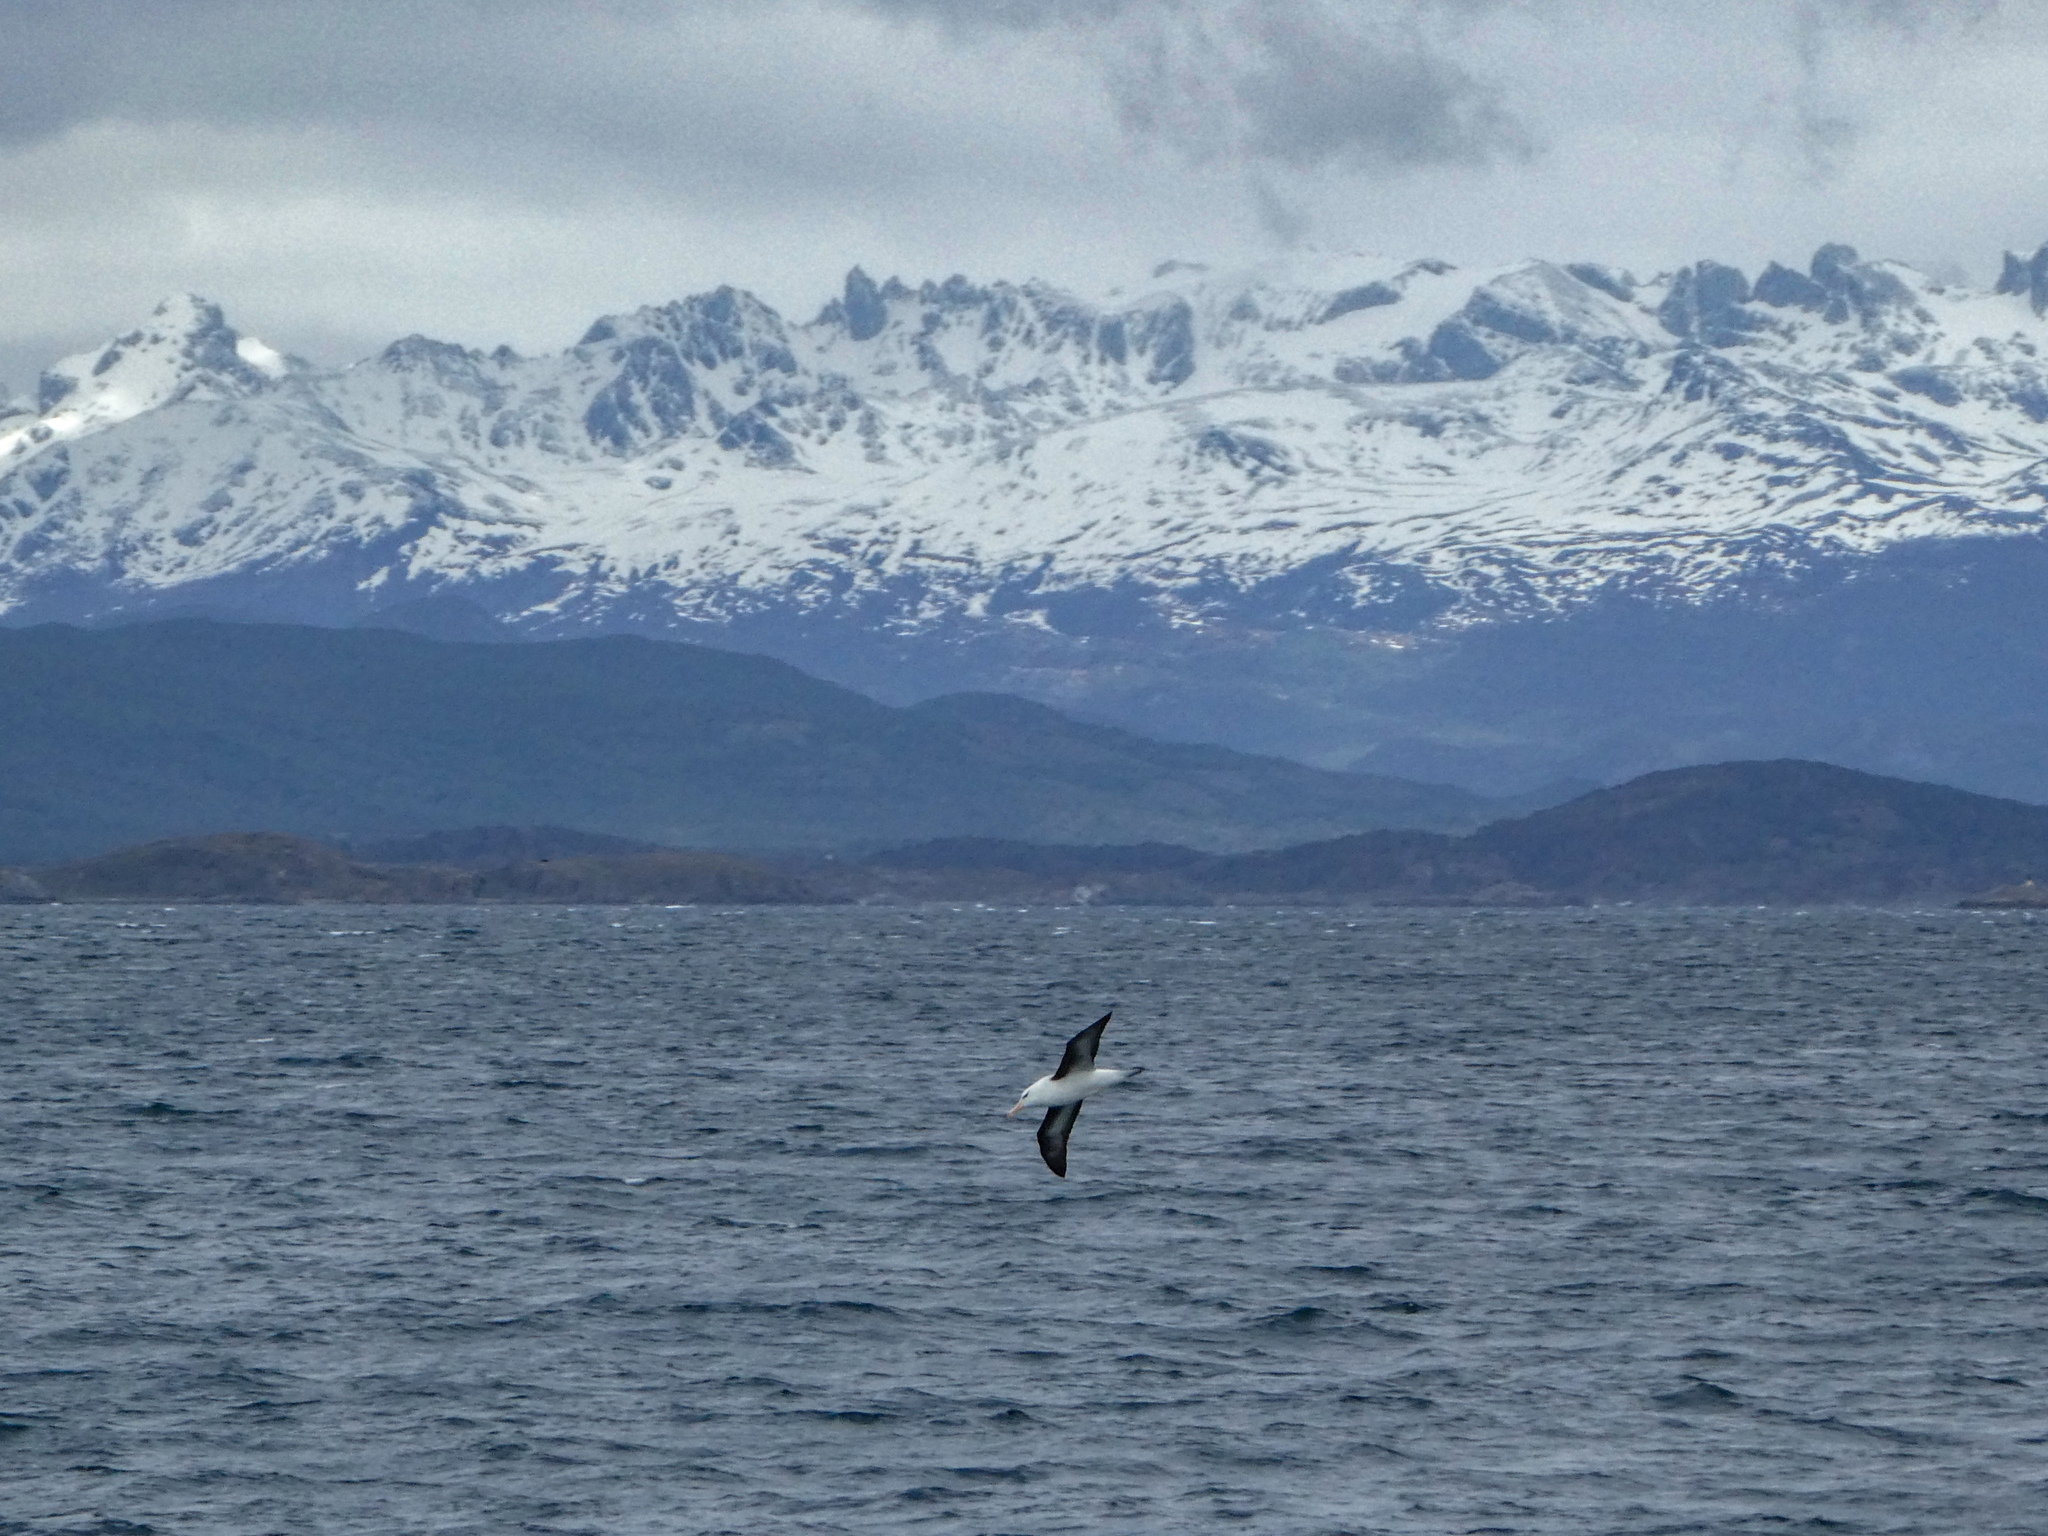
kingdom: Animalia
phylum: Chordata
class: Aves
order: Procellariiformes
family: Diomedeidae
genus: Thalassarche
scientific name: Thalassarche melanophris
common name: Black-browed albatross
